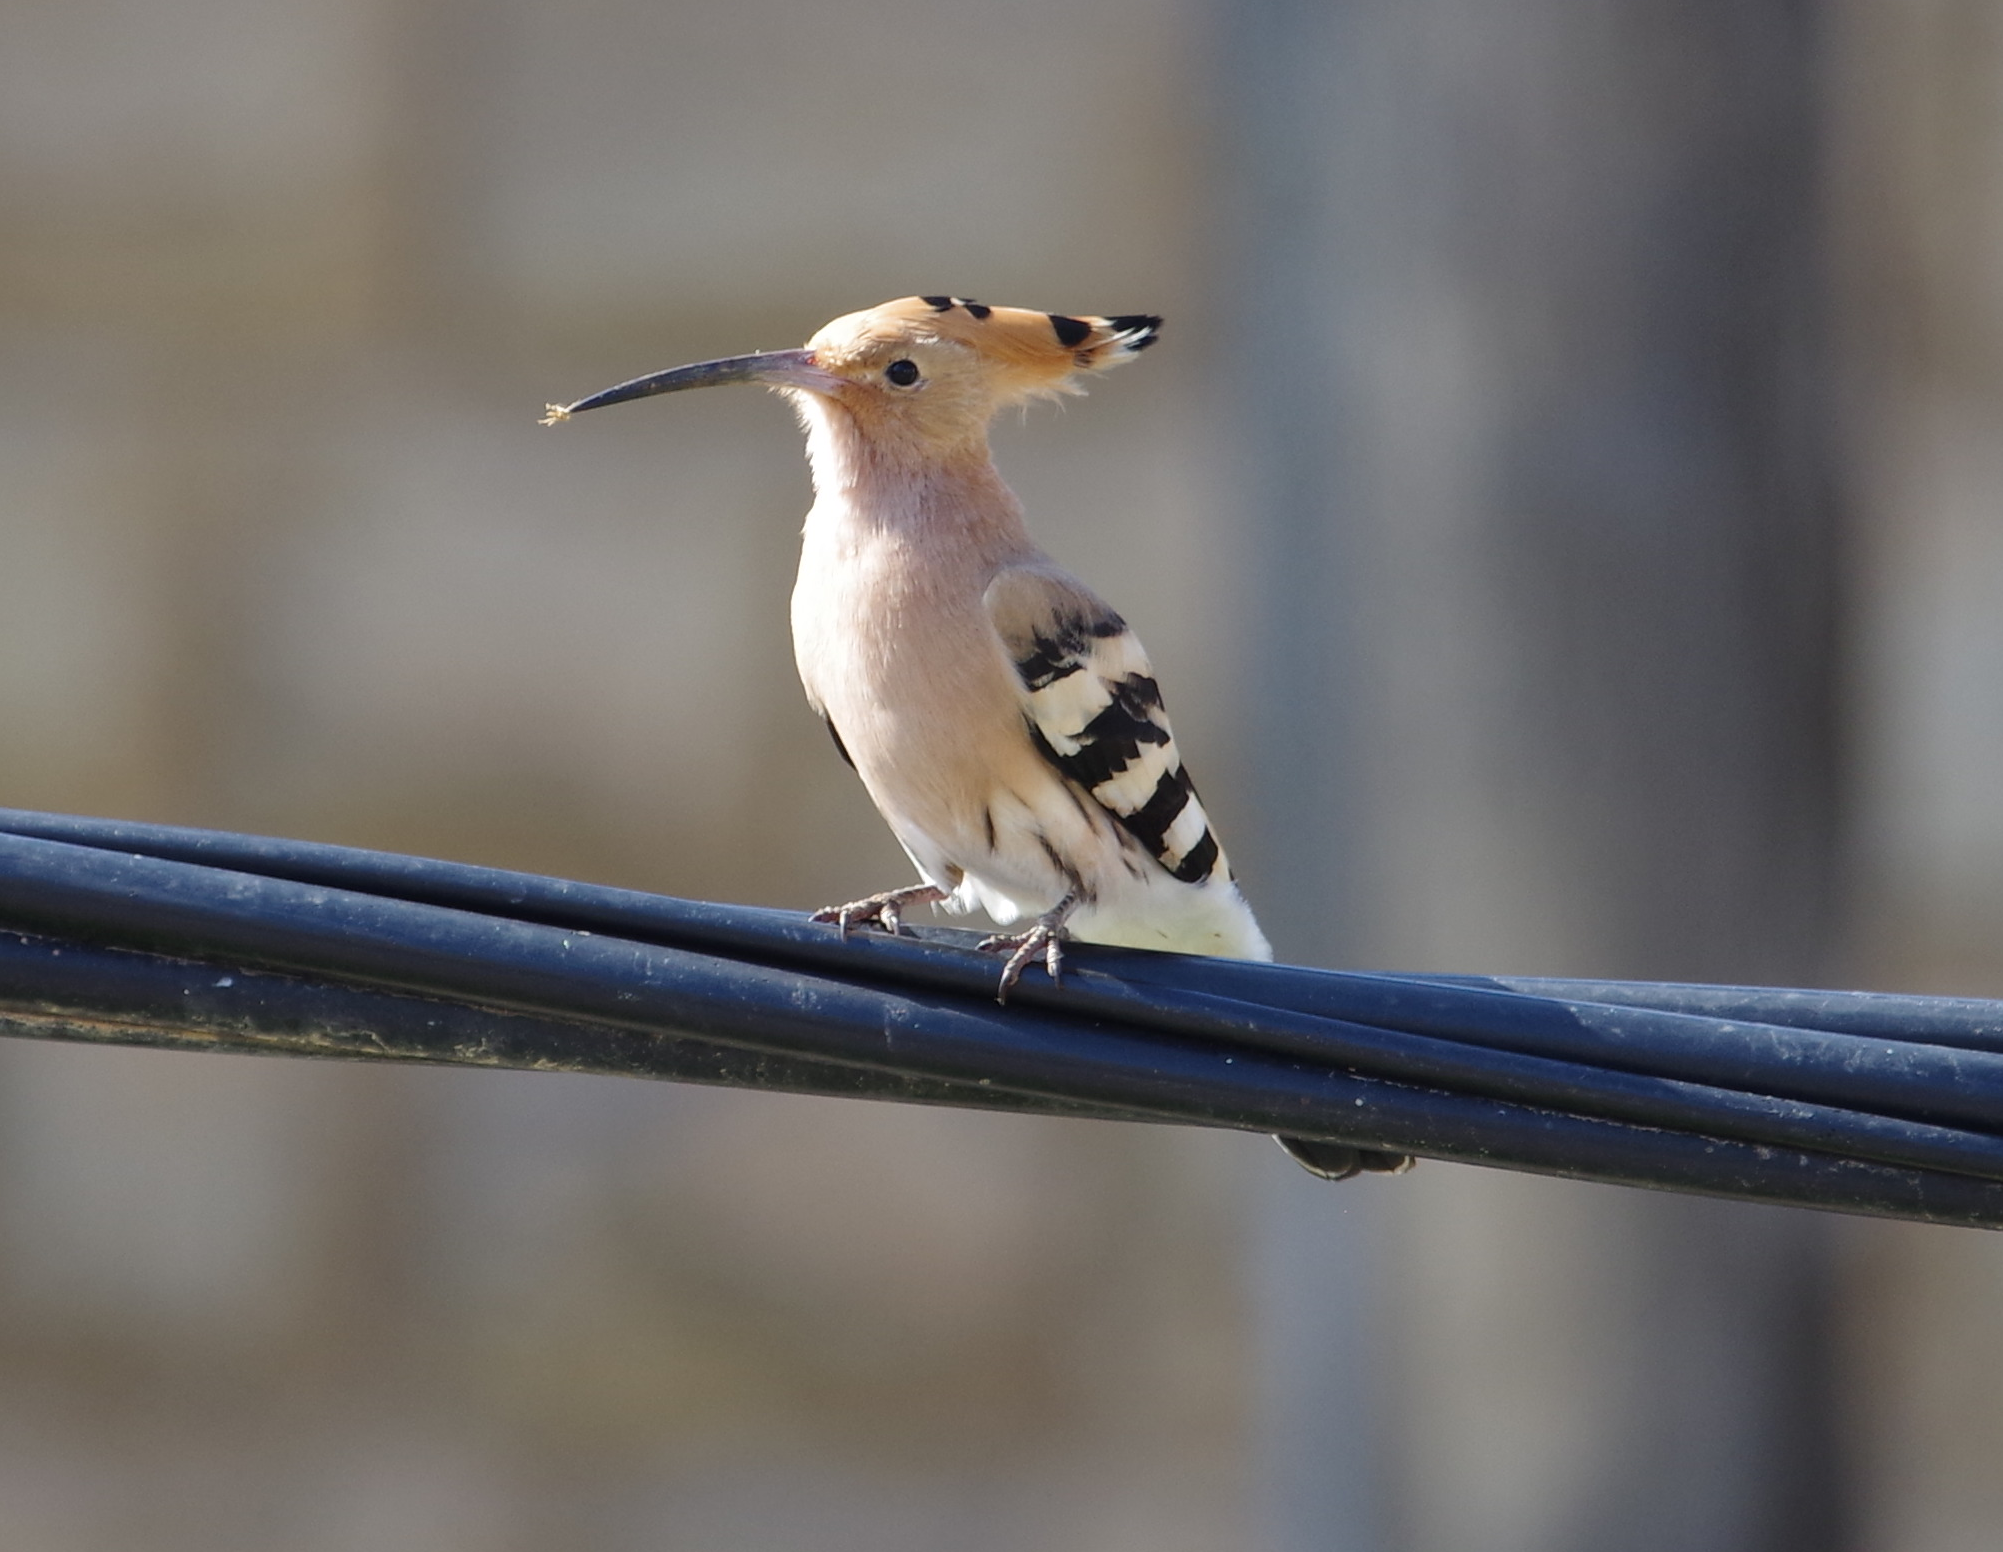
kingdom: Animalia
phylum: Chordata
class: Aves
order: Bucerotiformes
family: Upupidae
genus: Upupa
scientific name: Upupa epops
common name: Eurasian hoopoe
